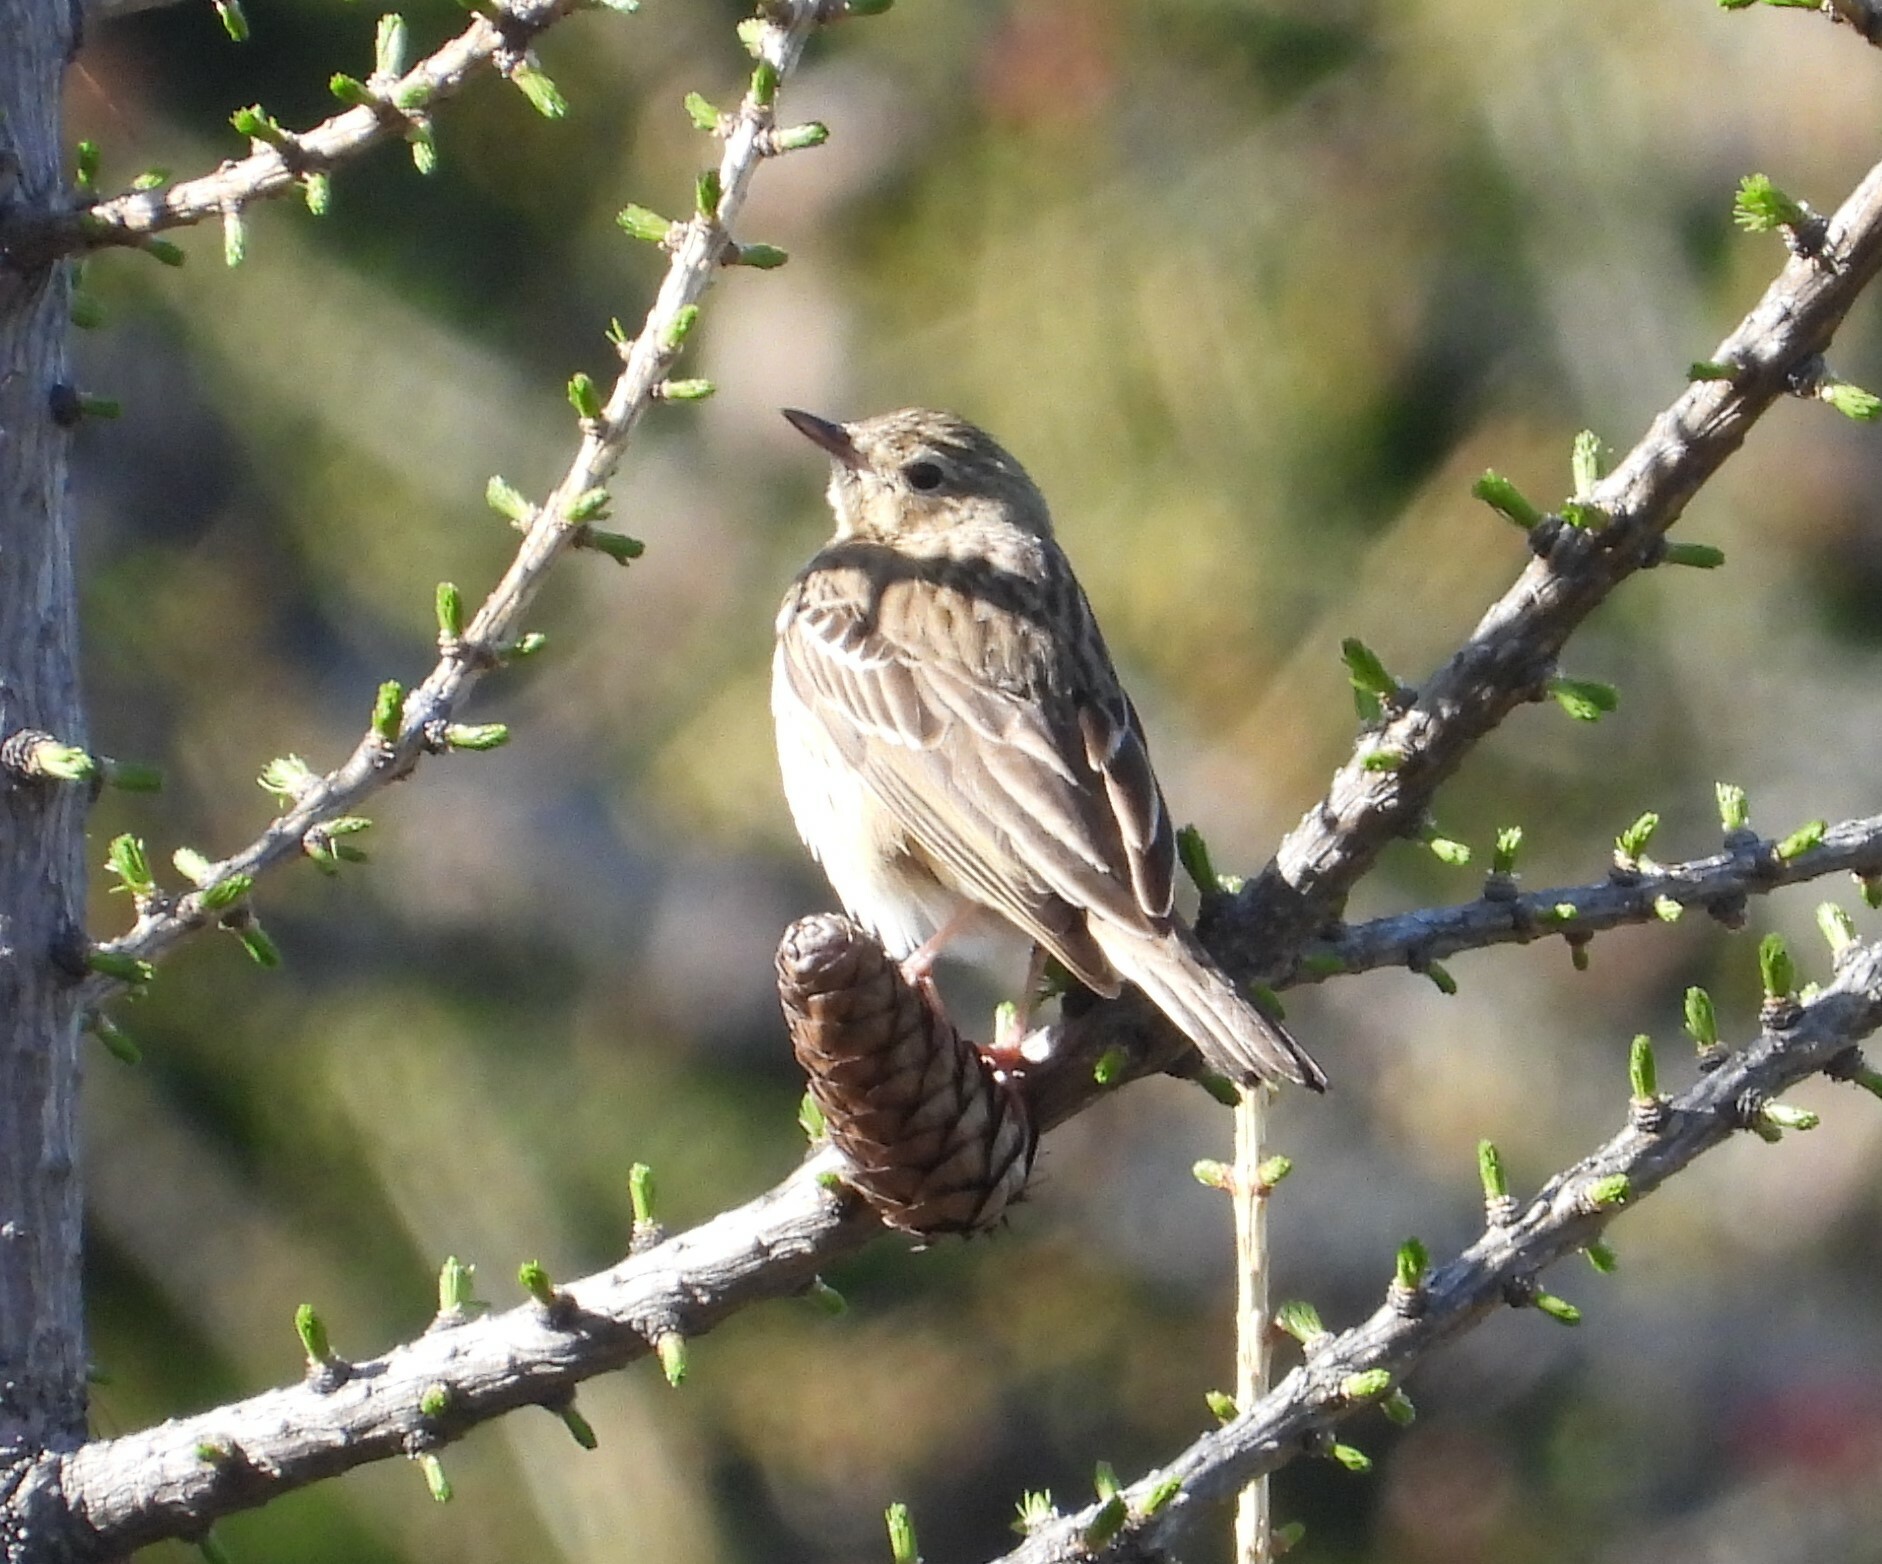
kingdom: Animalia
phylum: Chordata
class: Aves
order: Passeriformes
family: Motacillidae
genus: Anthus
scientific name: Anthus trivialis
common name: Tree pipit
